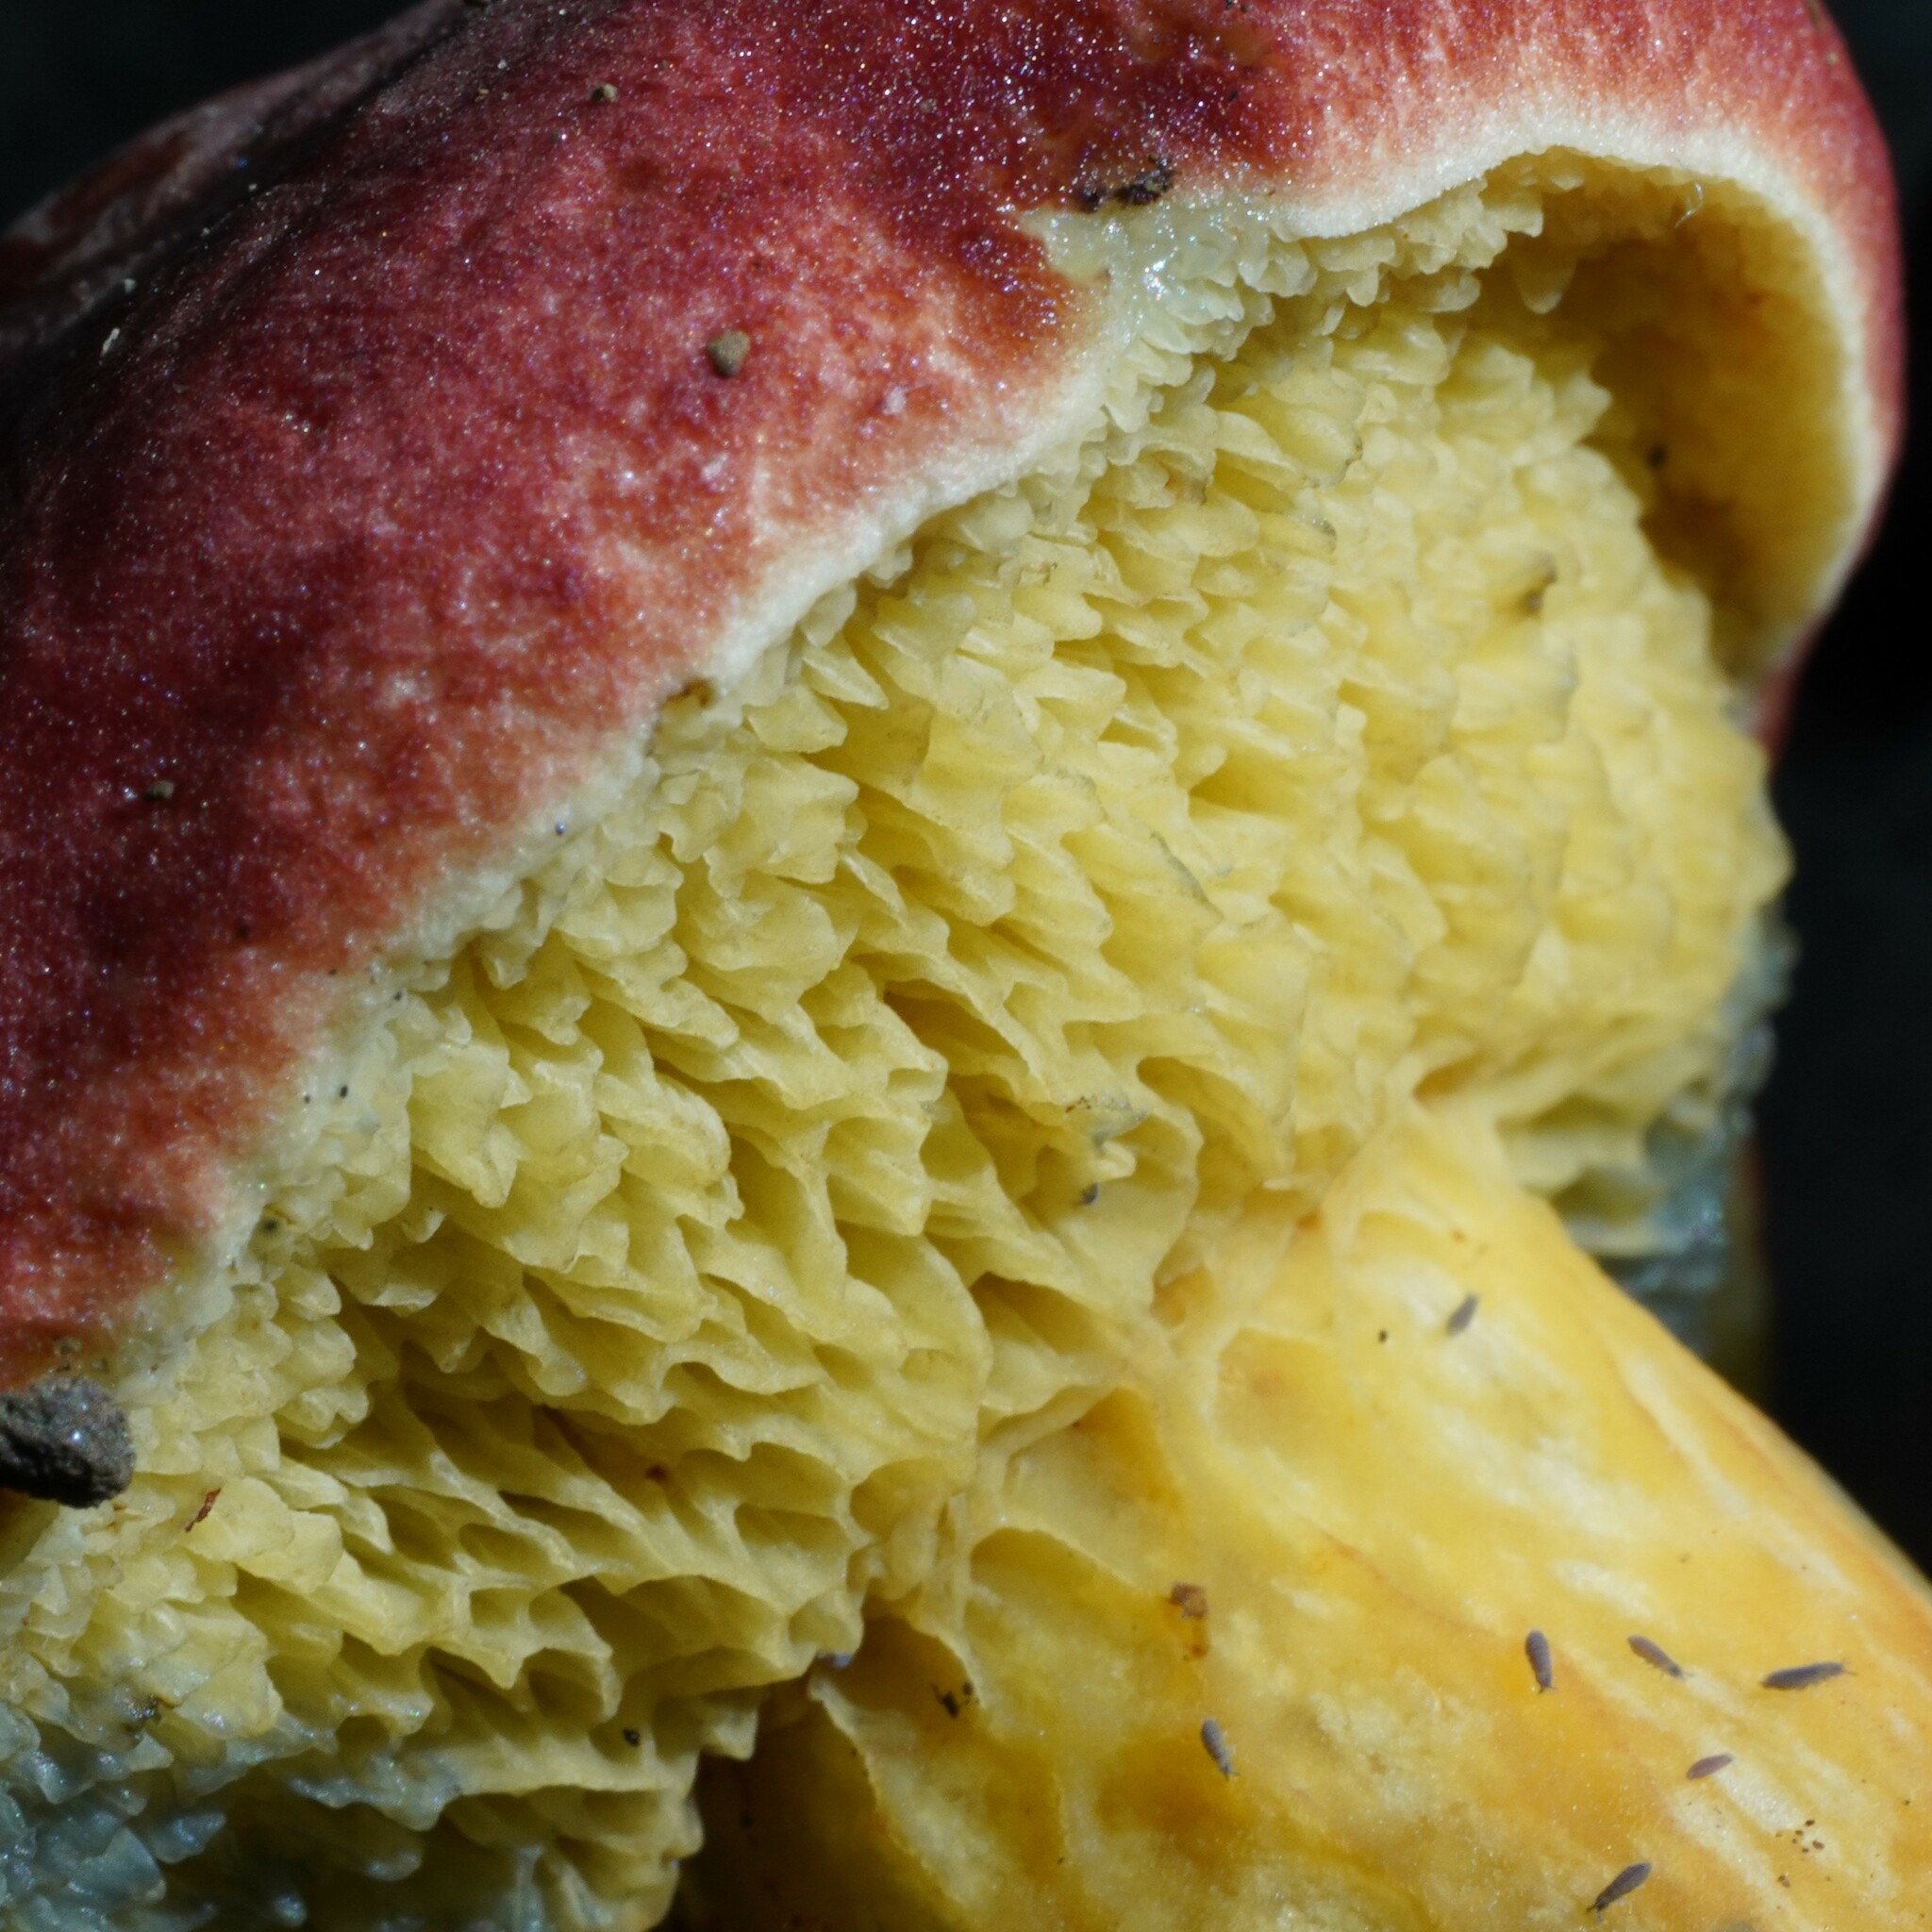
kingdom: Fungi
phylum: Basidiomycota
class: Agaricomycetes
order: Boletales
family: Boletaceae
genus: Hortiboletus
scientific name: Hortiboletus rubellus
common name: Ruby bolete
